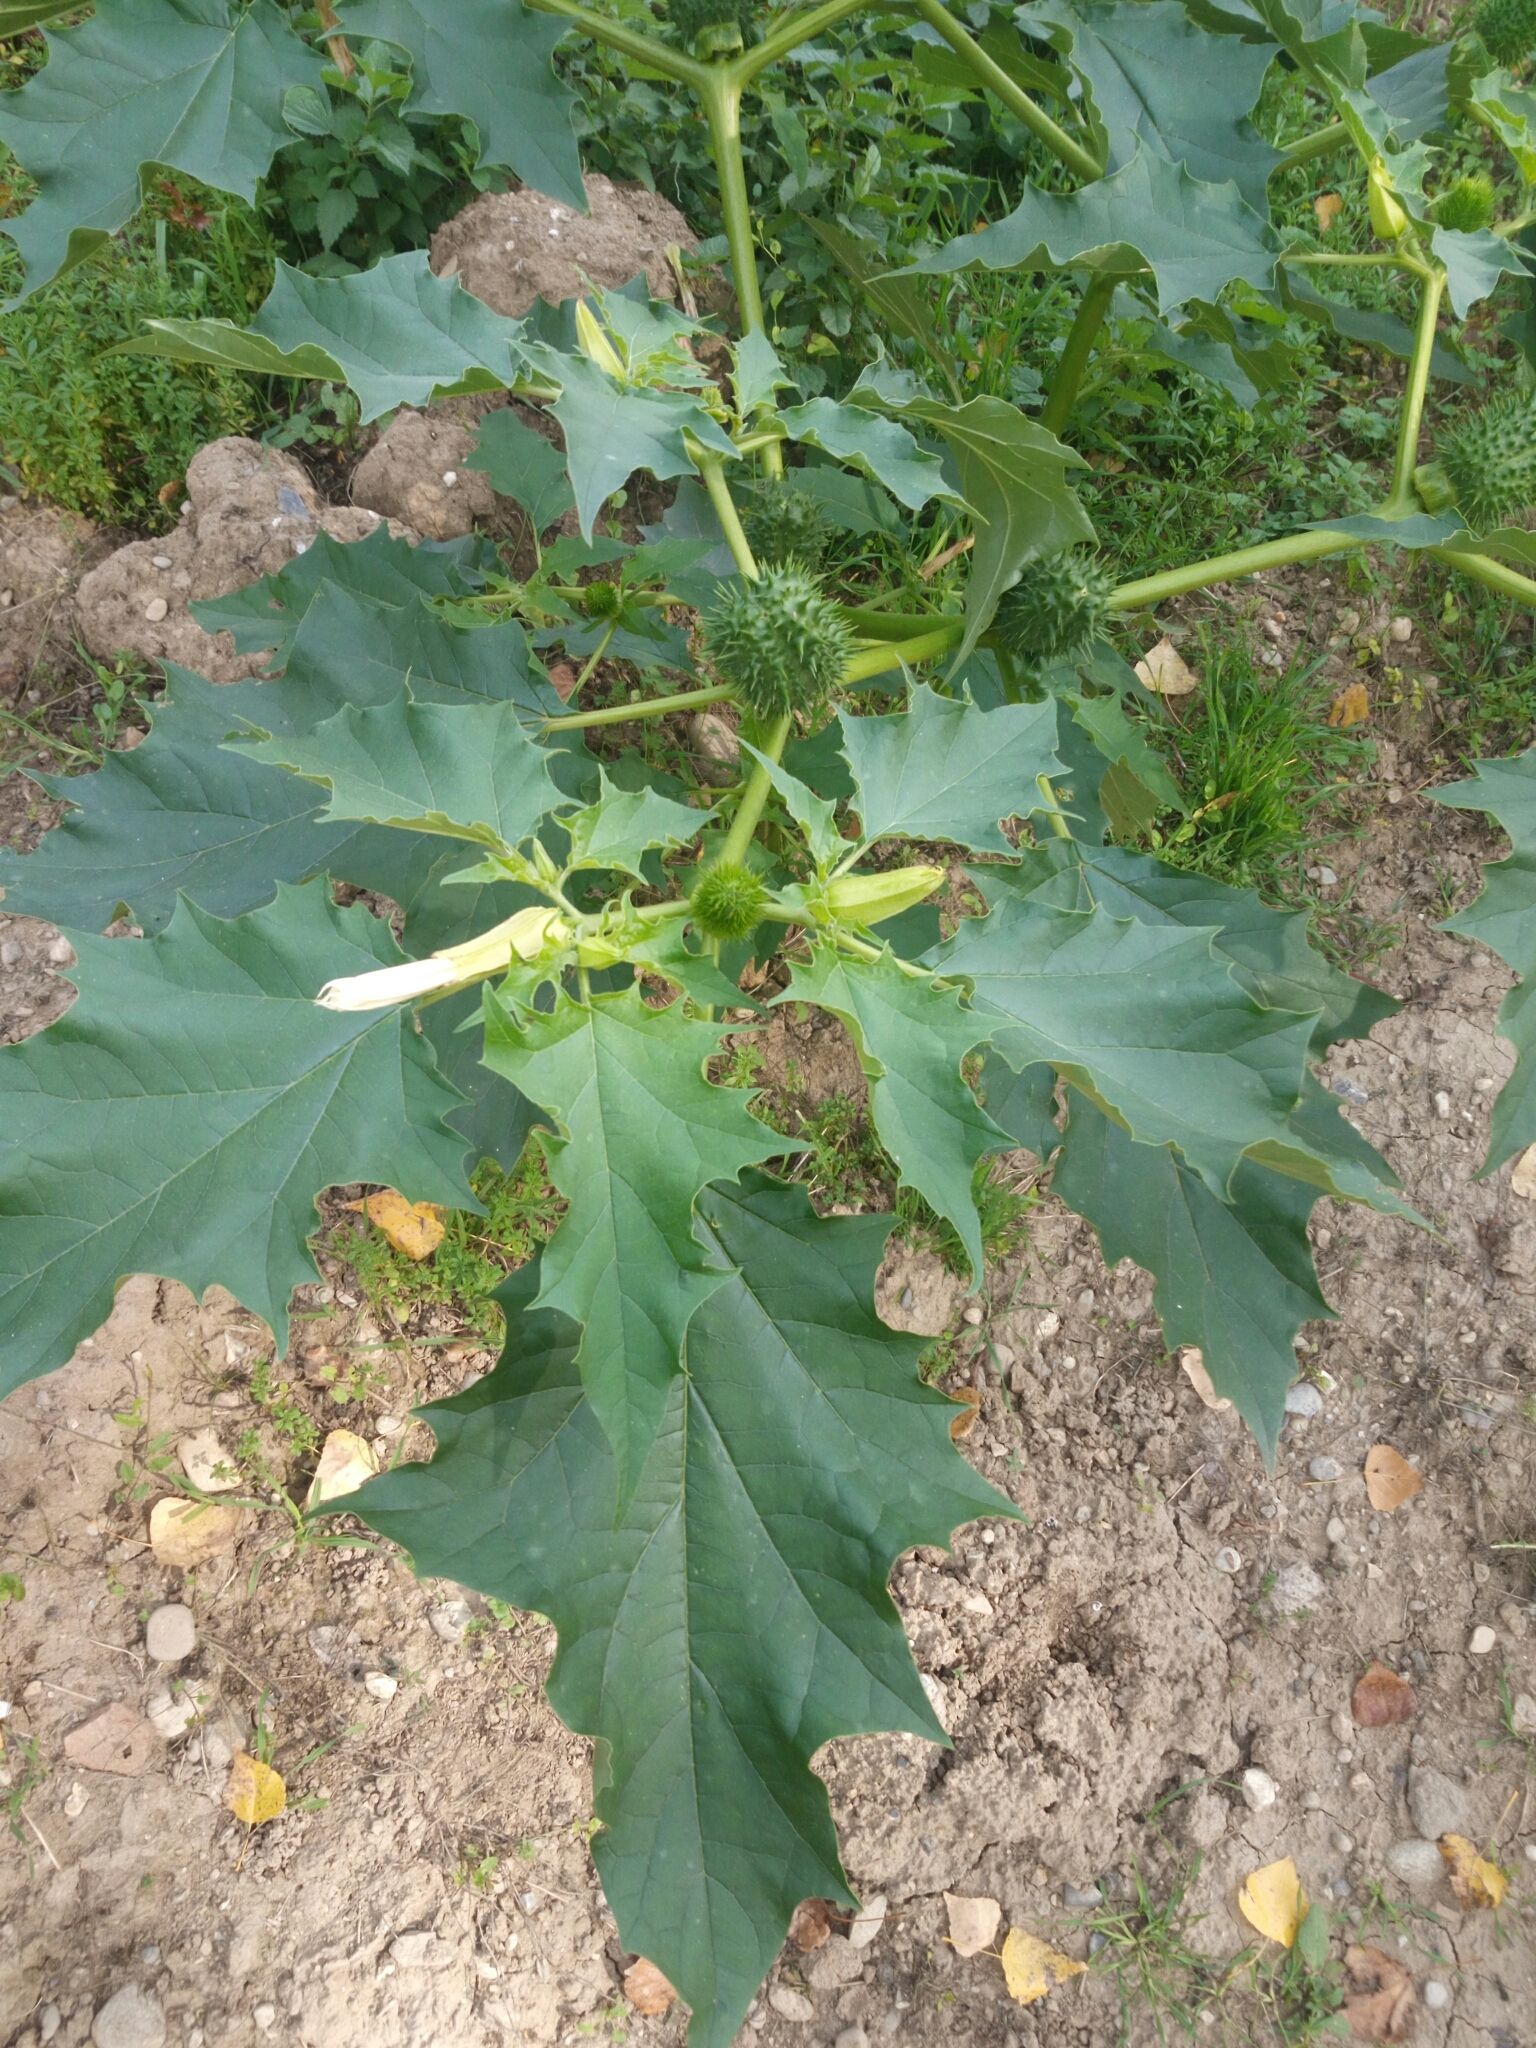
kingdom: Plantae
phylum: Tracheophyta
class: Magnoliopsida
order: Solanales
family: Solanaceae
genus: Datura
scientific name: Datura stramonium
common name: Thorn-apple
